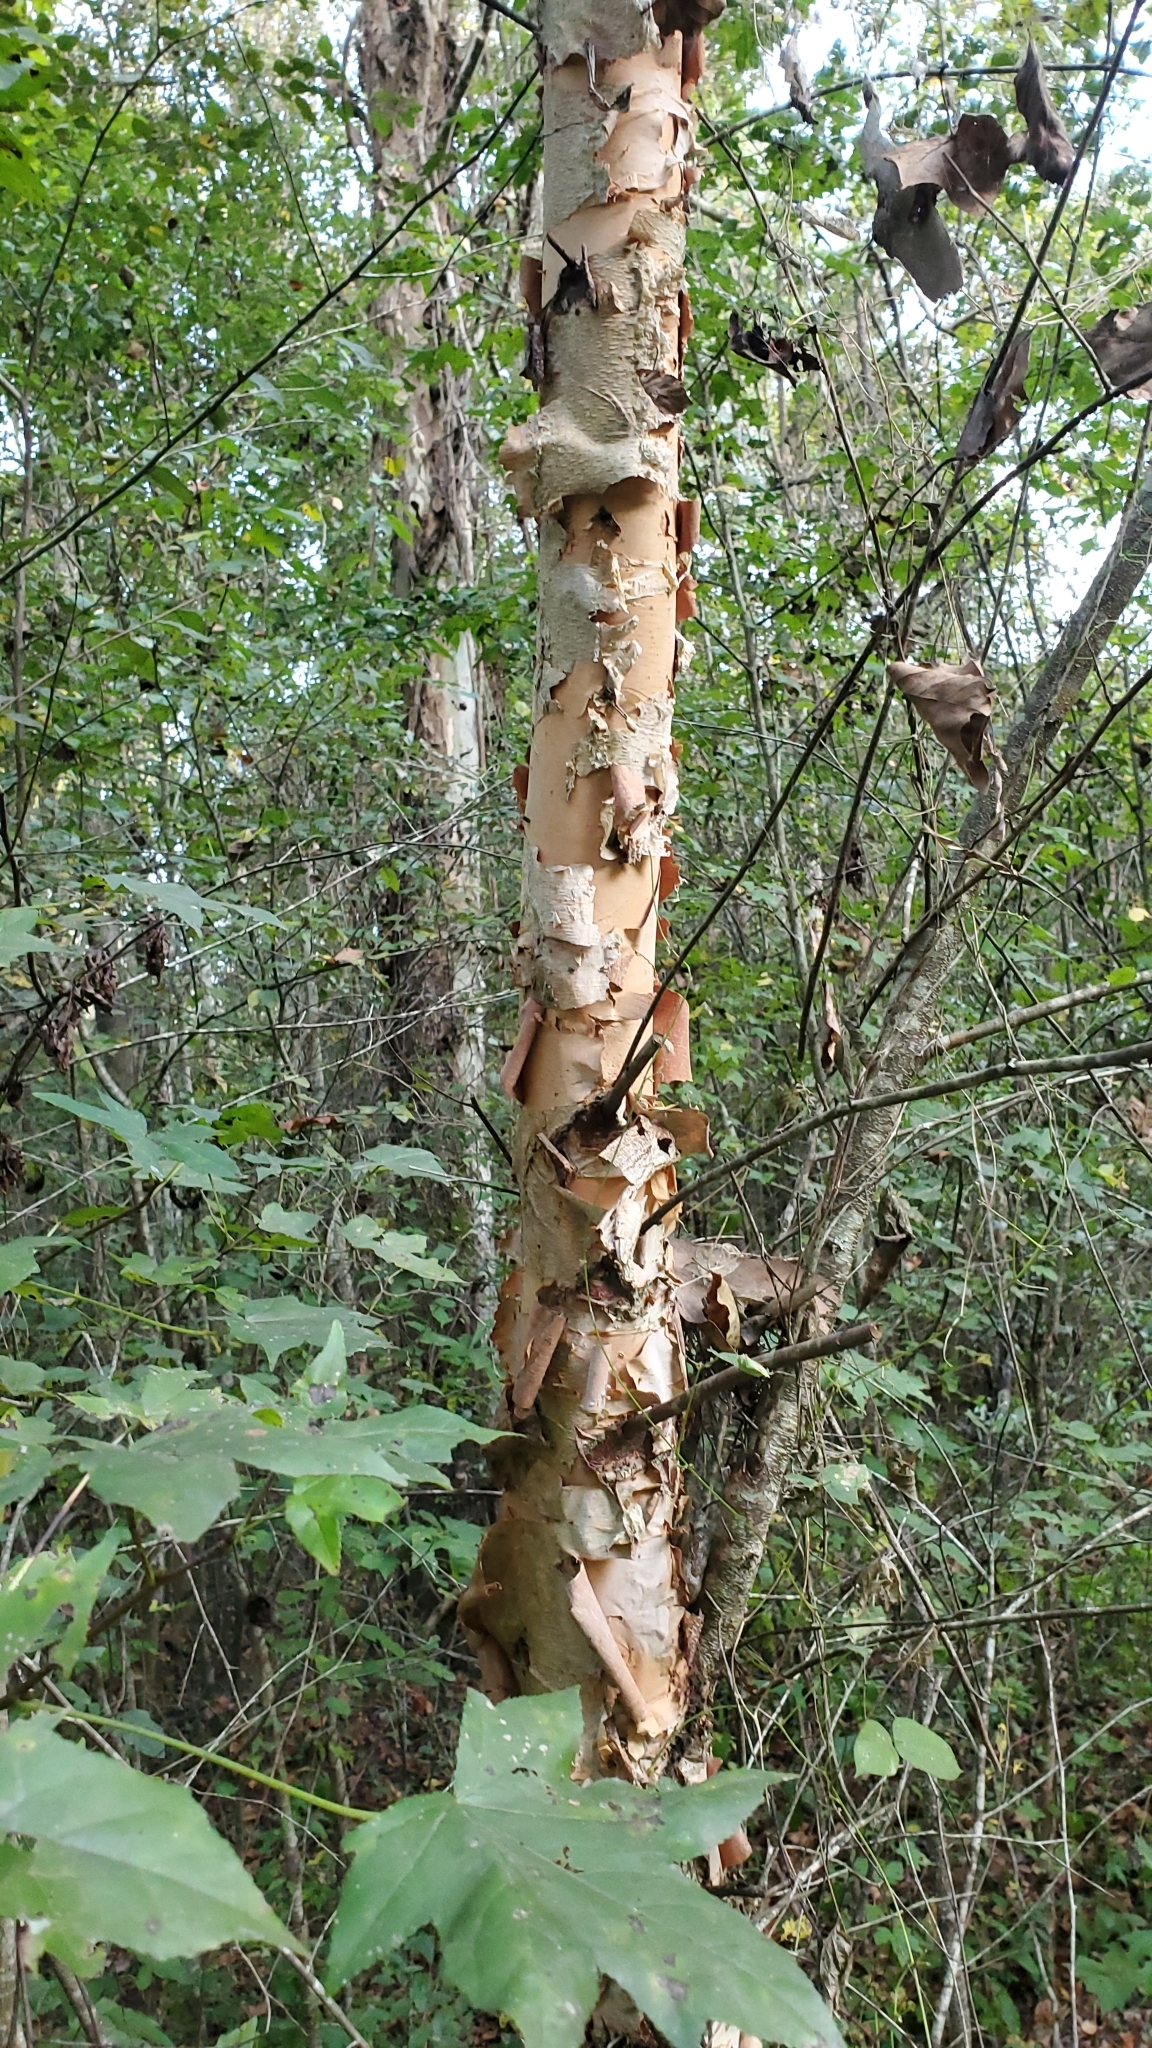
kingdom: Plantae
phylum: Tracheophyta
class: Magnoliopsida
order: Fagales
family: Betulaceae
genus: Betula
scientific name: Betula nigra
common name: Black birch
